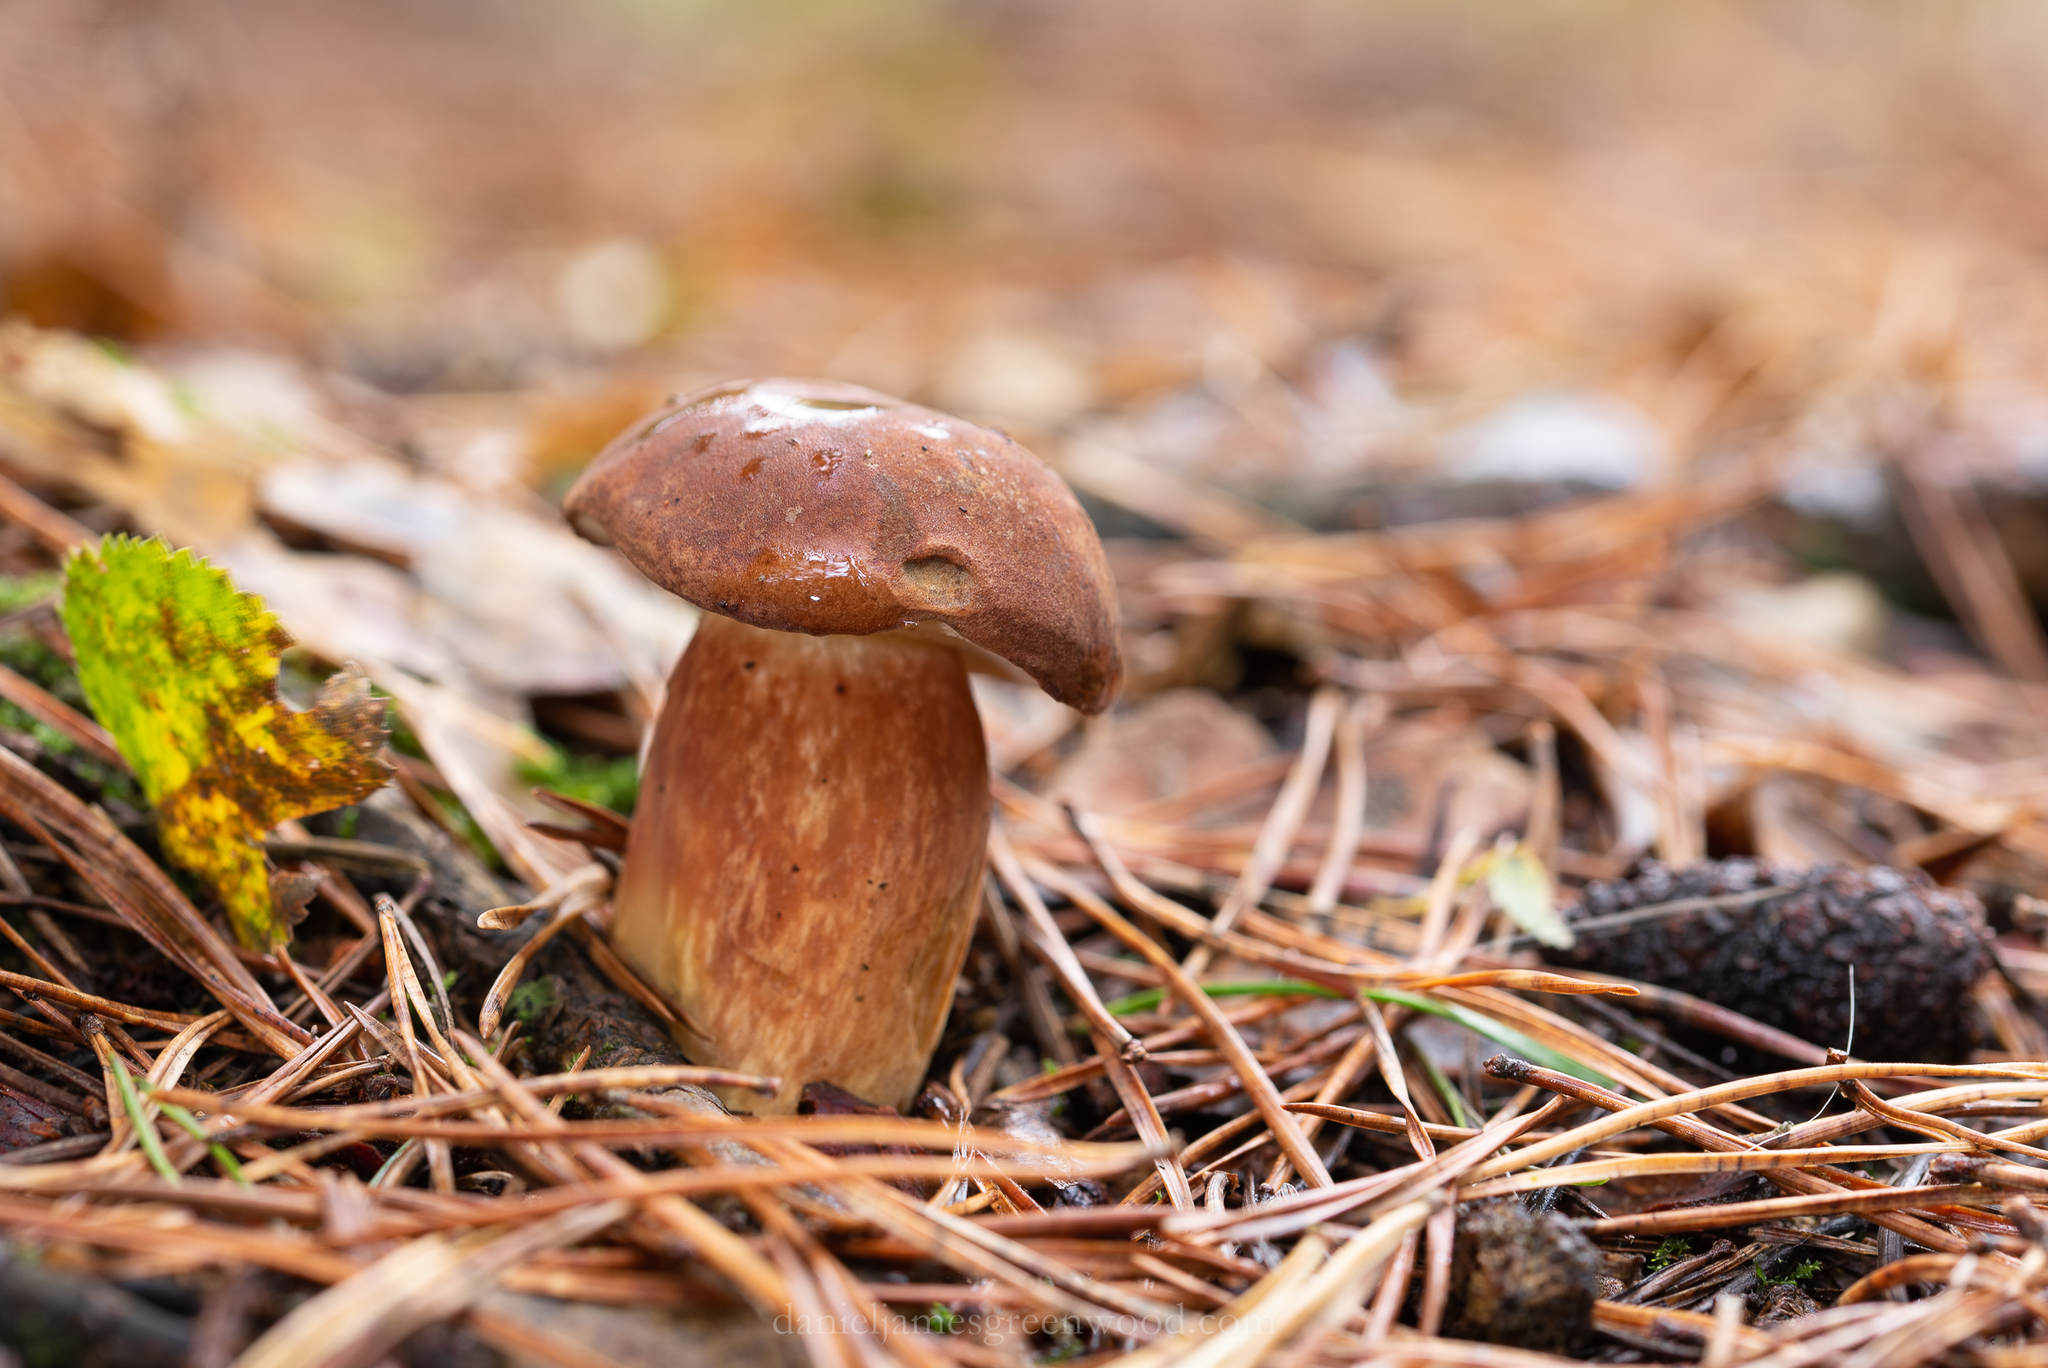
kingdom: Fungi
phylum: Basidiomycota
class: Agaricomycetes
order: Boletales
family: Boletaceae
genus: Imleria
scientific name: Imleria badia
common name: Bay bolete
